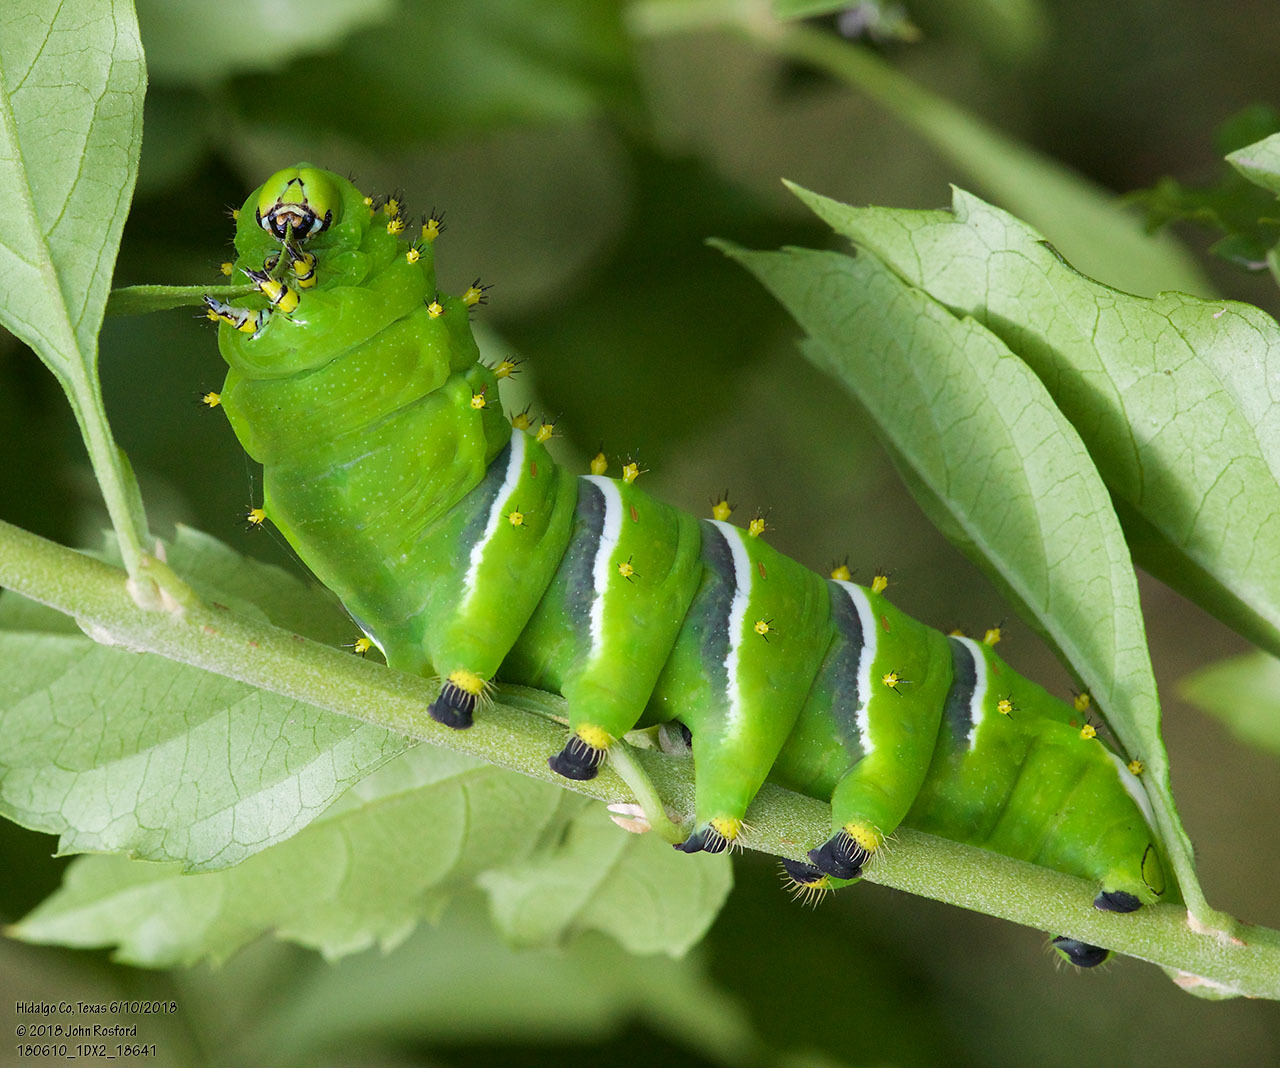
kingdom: Animalia
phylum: Arthropoda
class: Insecta
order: Lepidoptera
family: Saturniidae
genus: Rothschildia
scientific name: Rothschildia lebeau
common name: Lebeau's rothschildia
